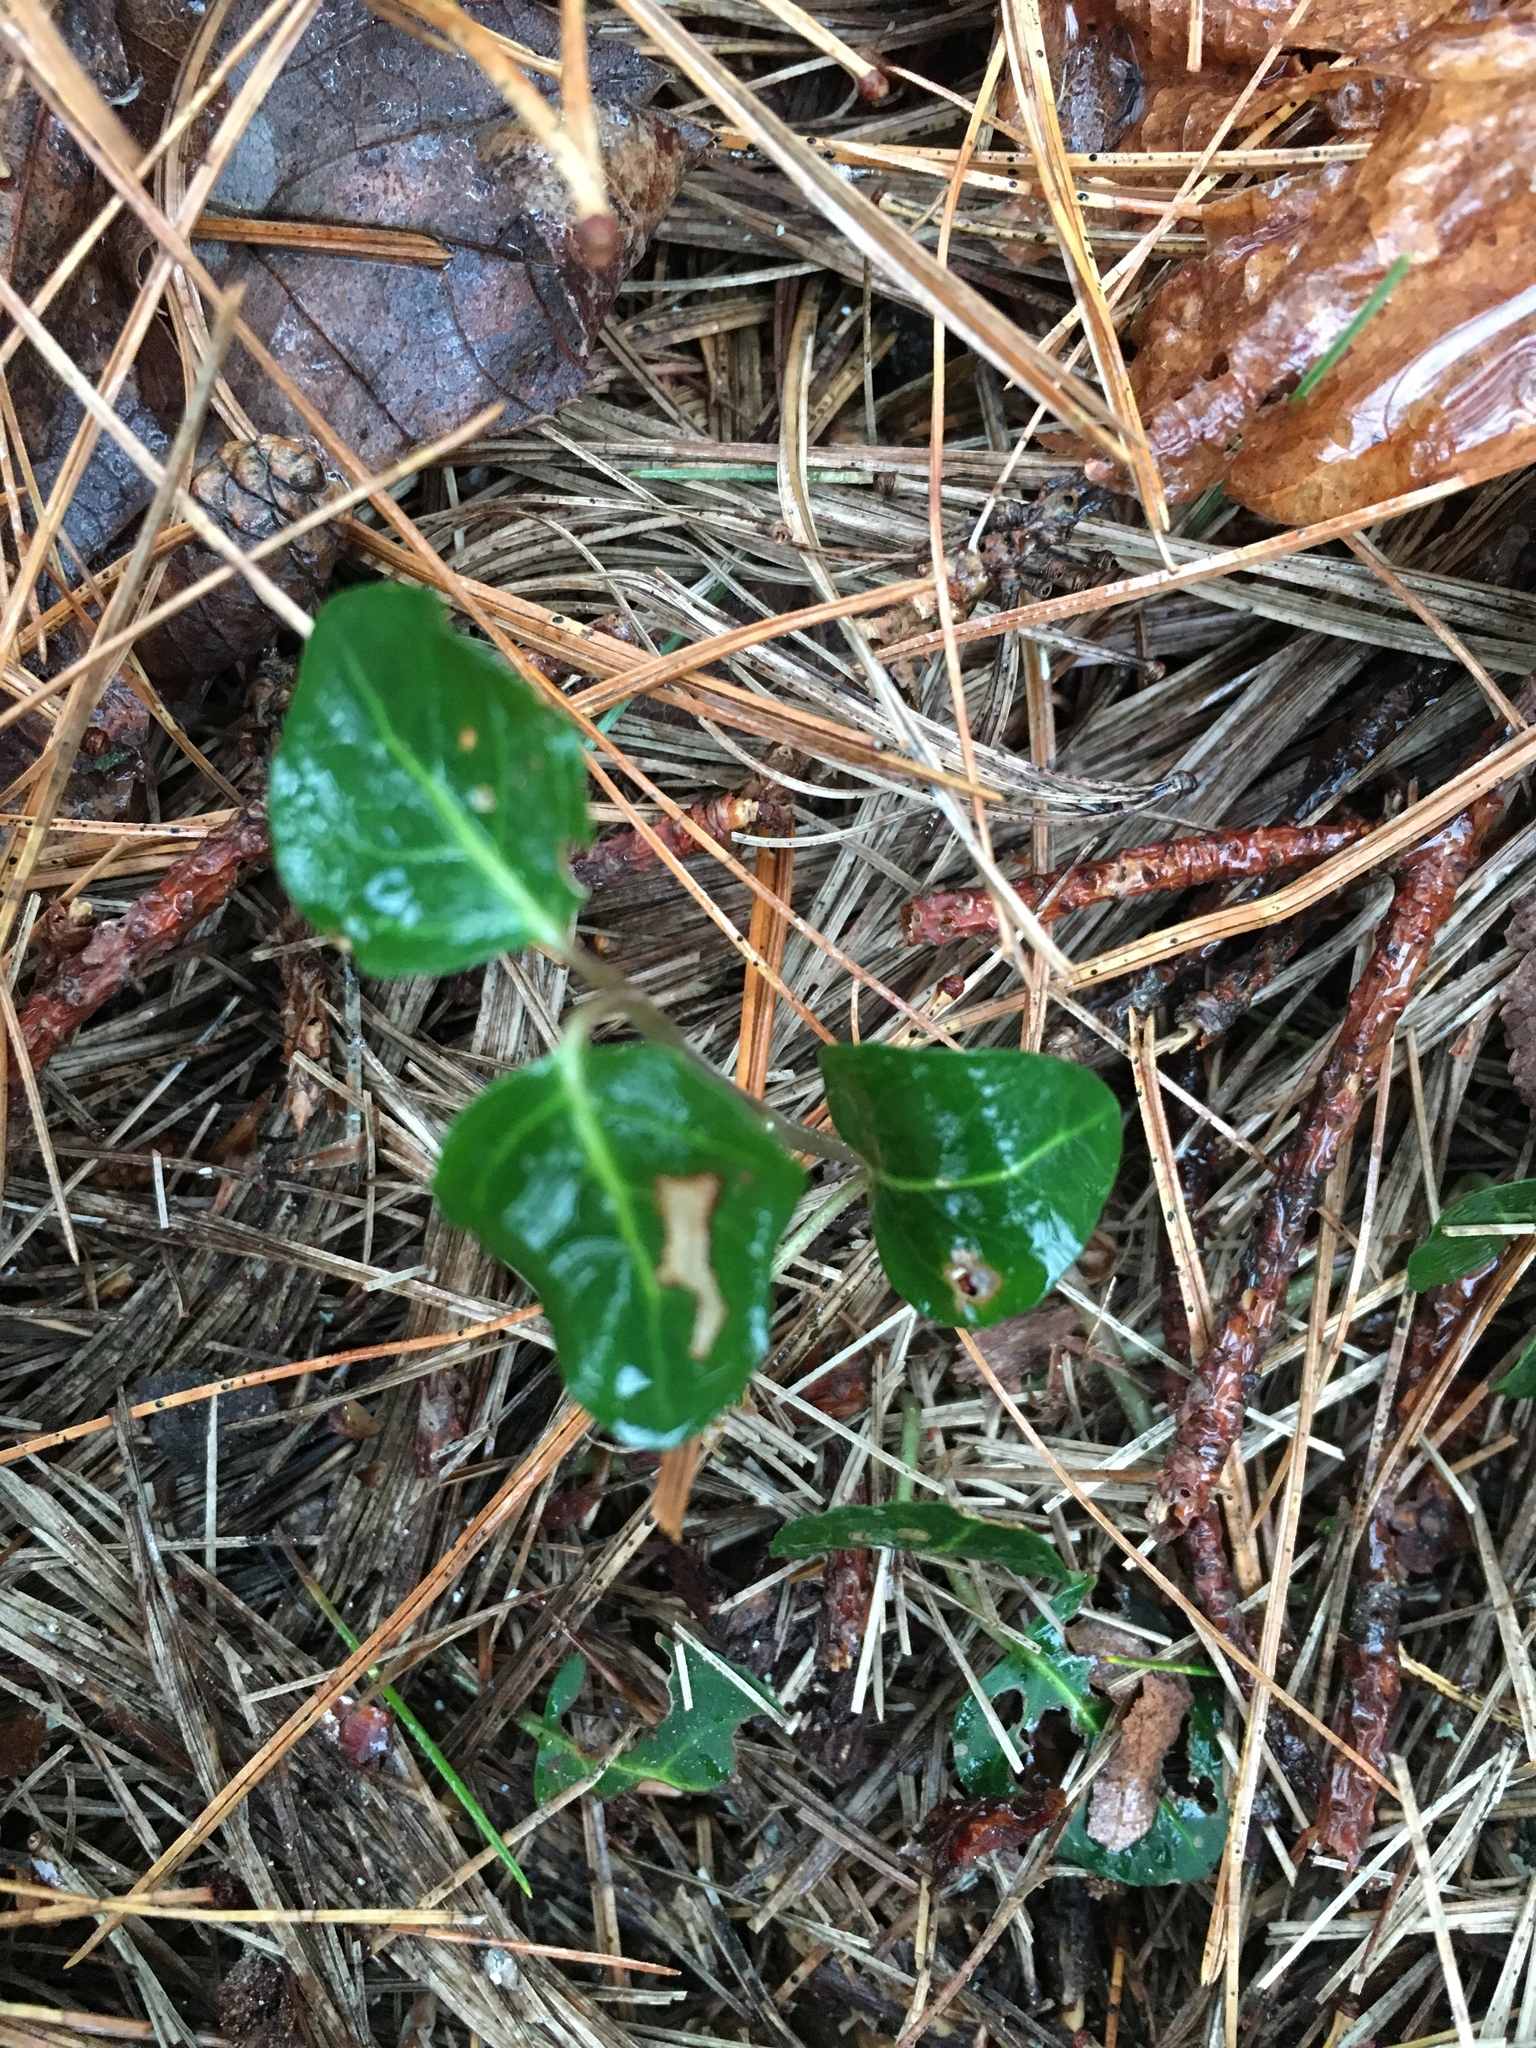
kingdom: Plantae
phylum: Tracheophyta
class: Magnoliopsida
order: Gentianales
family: Rubiaceae
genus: Mitchella
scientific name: Mitchella repens
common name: Partridge-berry
